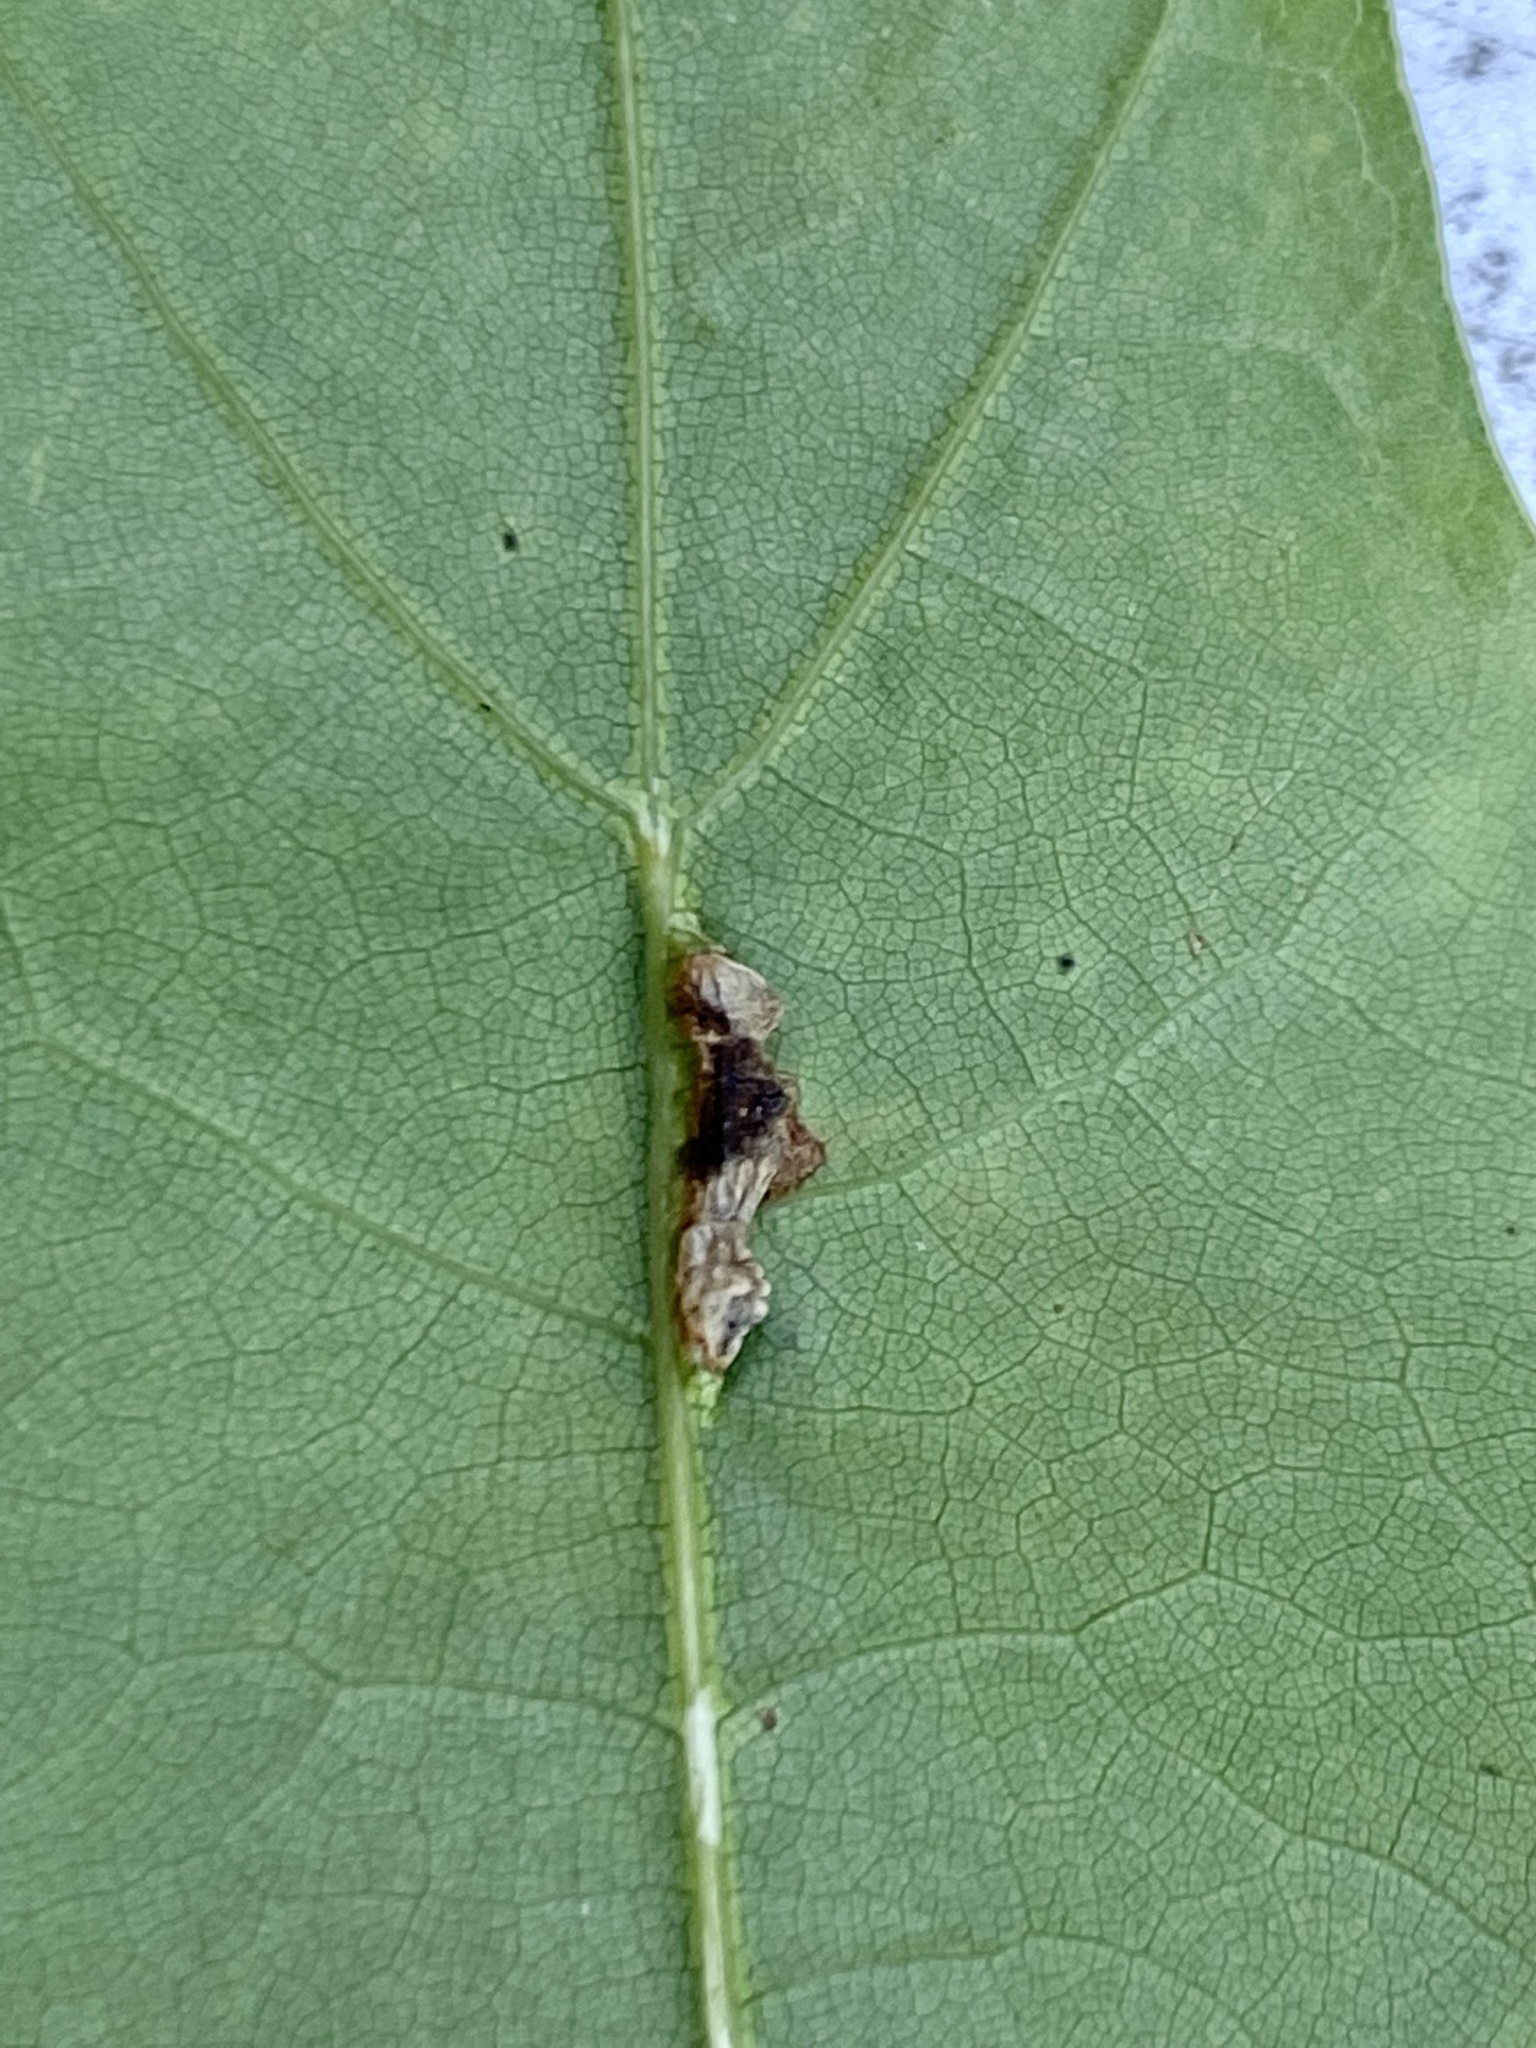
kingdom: Animalia
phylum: Arthropoda
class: Insecta
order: Diptera
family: Cecidomyiidae
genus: Macrodiplosis
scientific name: Macrodiplosis majalis
